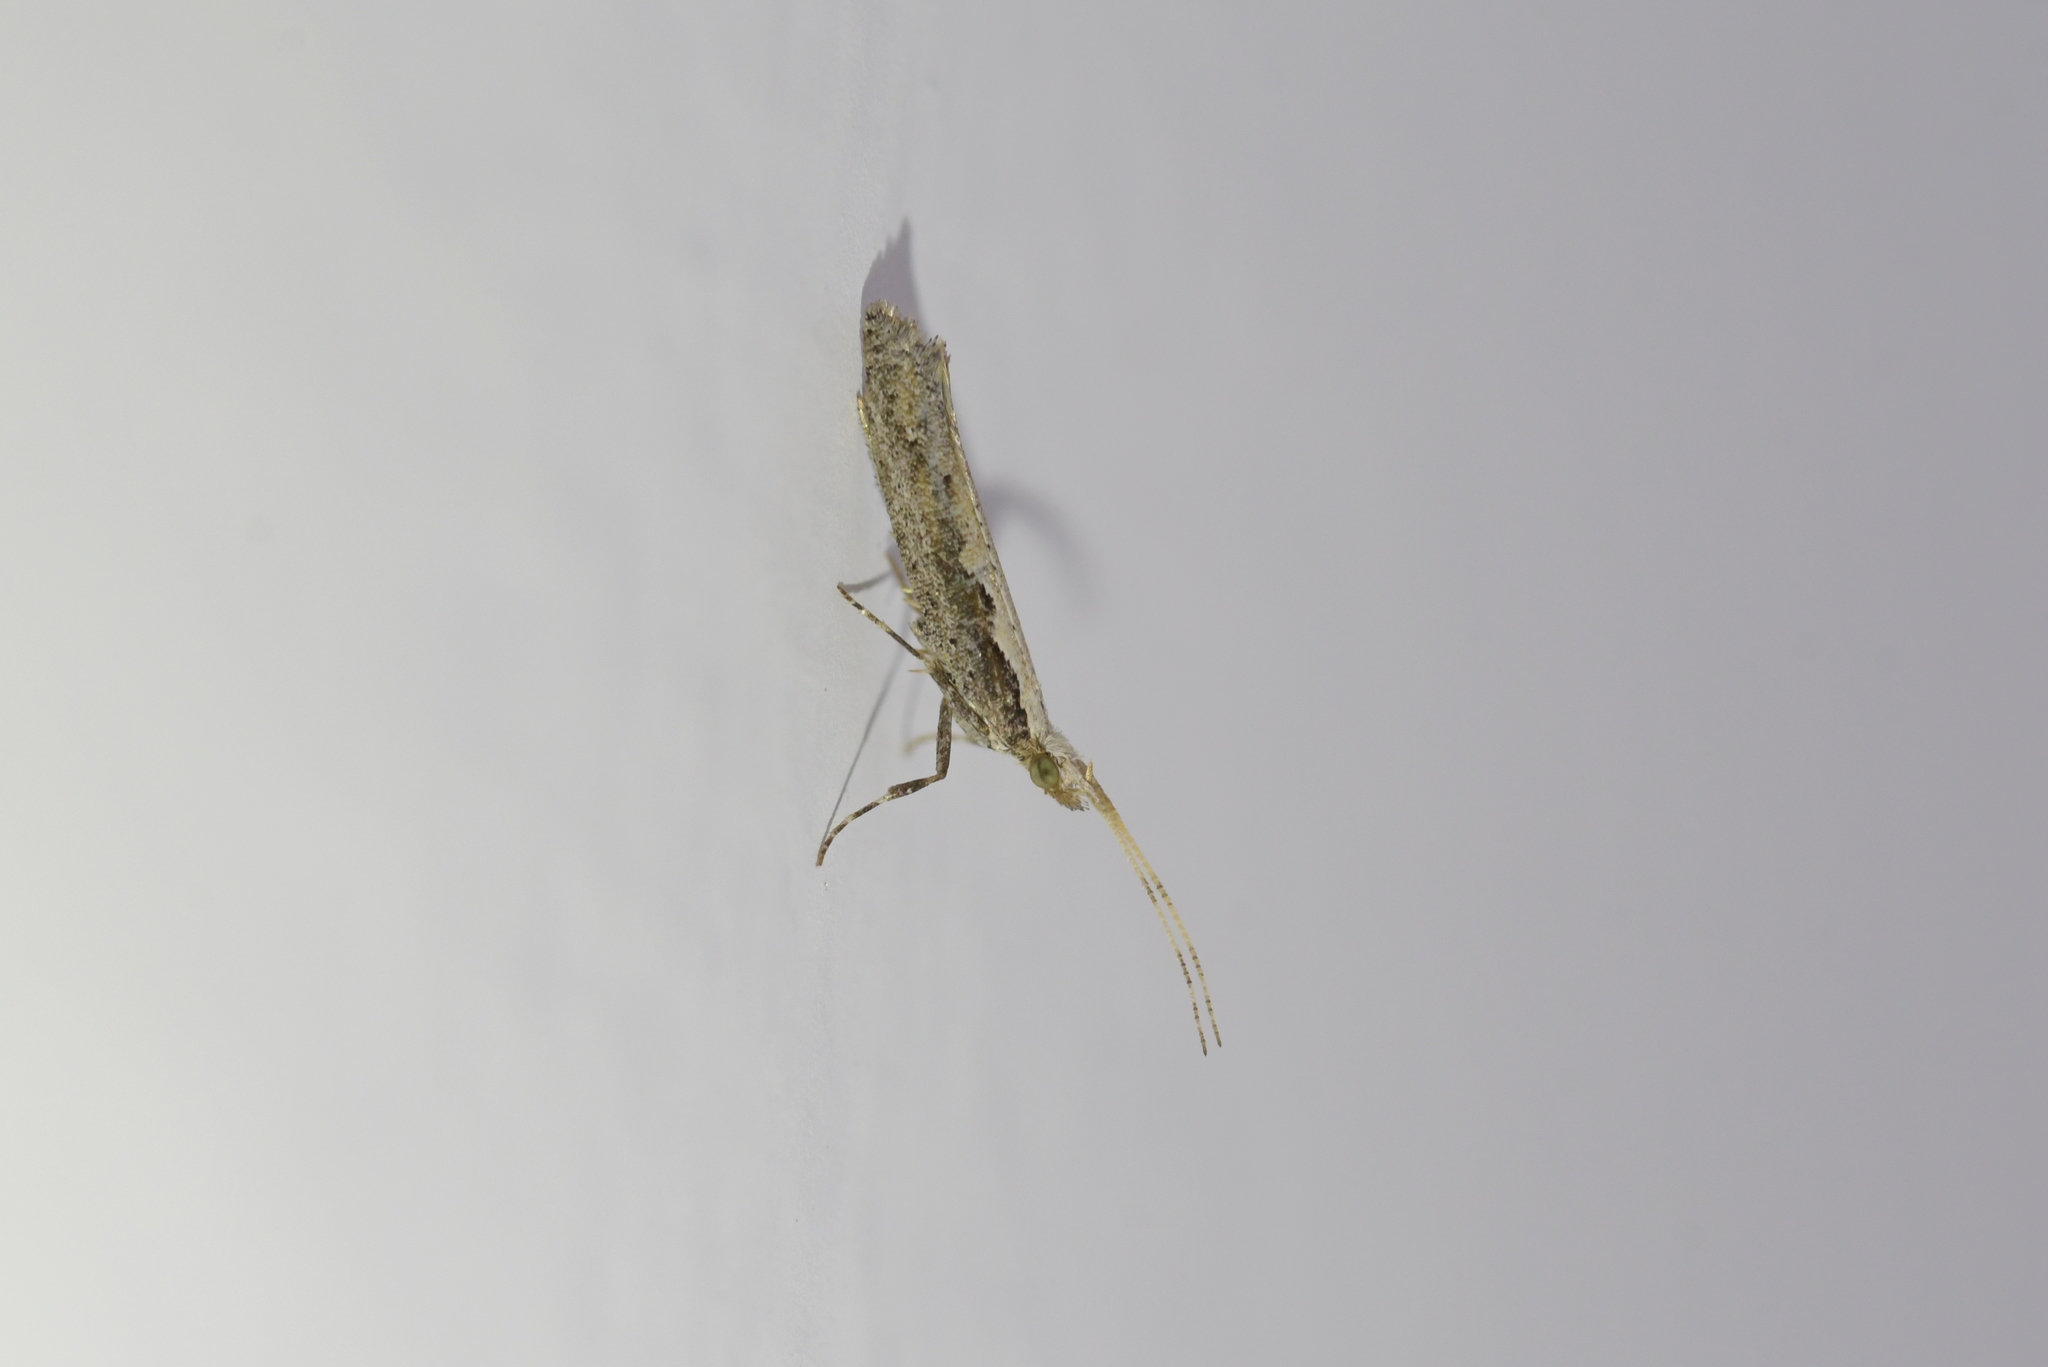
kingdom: Animalia
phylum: Arthropoda
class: Insecta
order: Lepidoptera
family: Plutellidae
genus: Plutella
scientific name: Plutella xylostella
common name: Diamond-back moth
